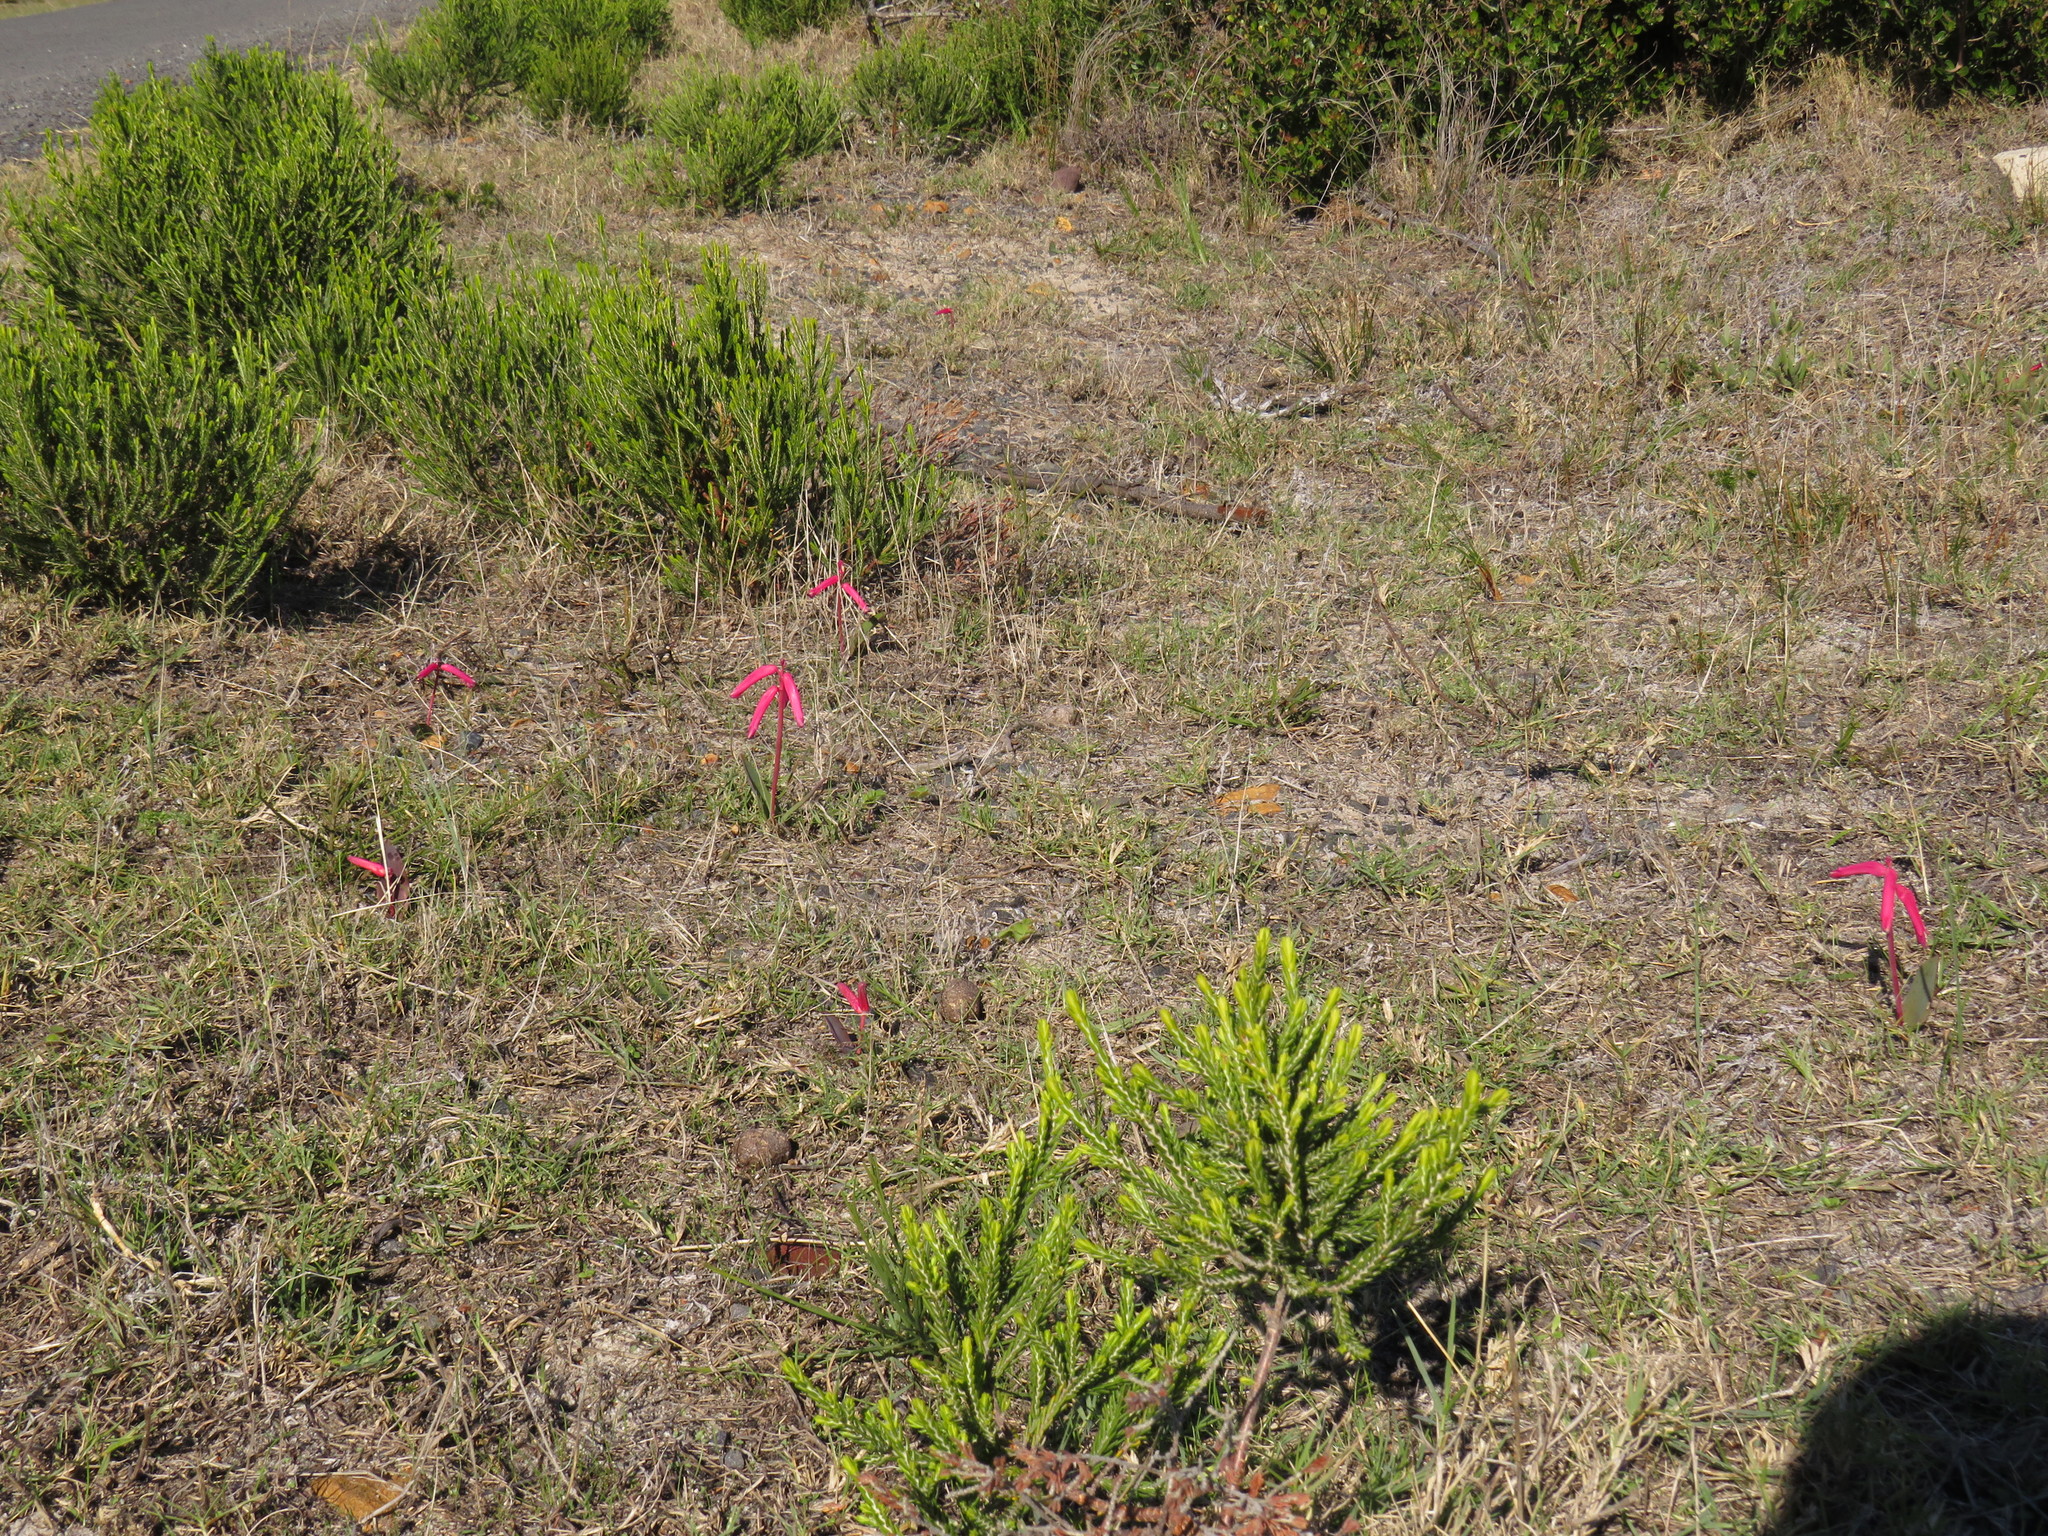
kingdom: Plantae
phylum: Tracheophyta
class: Liliopsida
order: Asparagales
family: Asparagaceae
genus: Lachenalia
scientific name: Lachenalia punctata
